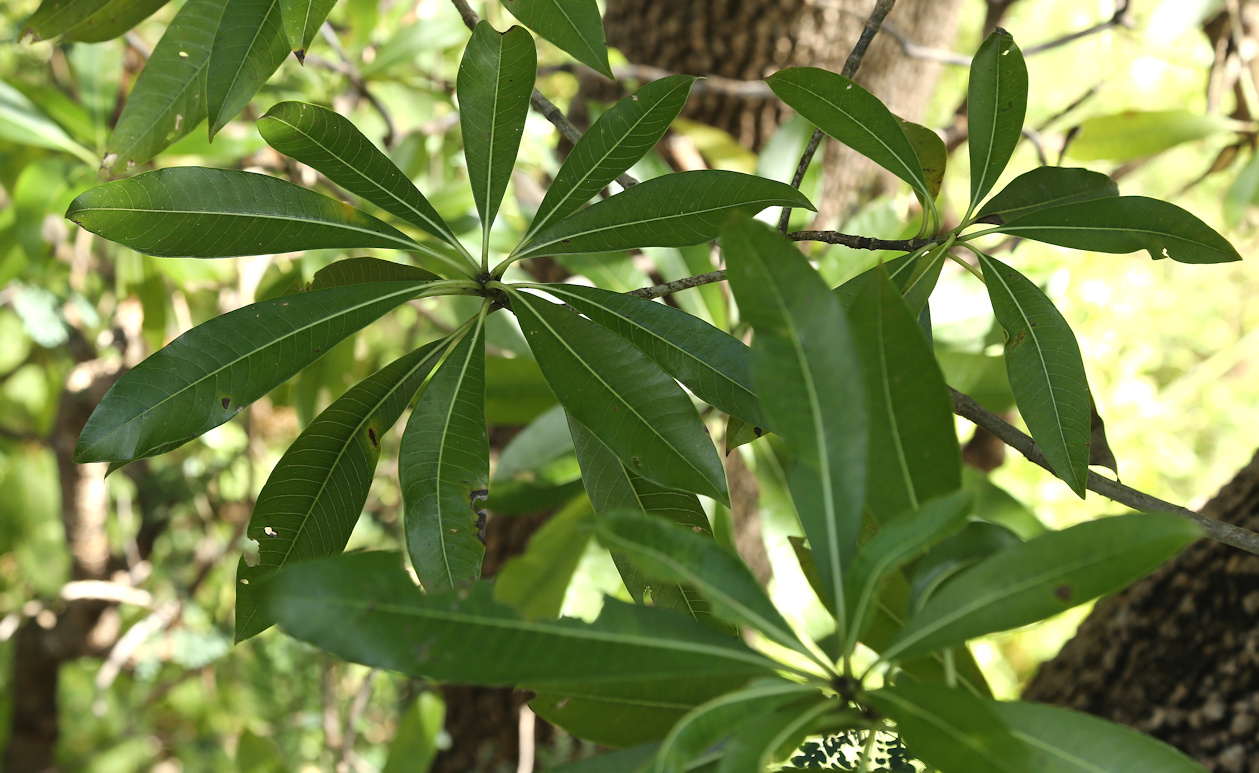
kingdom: Plantae
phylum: Tracheophyta
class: Magnoliopsida
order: Gentianales
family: Apocynaceae
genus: Rauvolfia
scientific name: Rauvolfia caffra
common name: Quininetree
